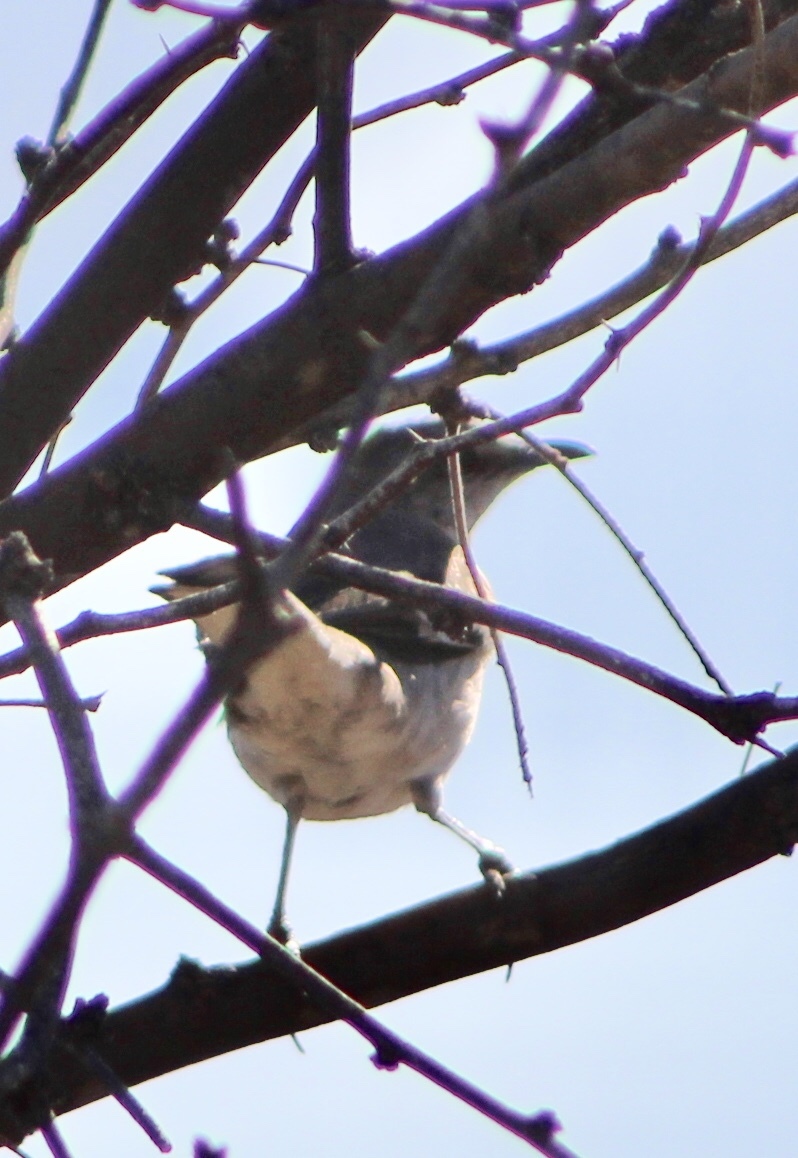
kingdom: Animalia
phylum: Chordata
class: Aves
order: Passeriformes
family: Mimidae
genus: Mimus
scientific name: Mimus polyglottos
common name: Northern mockingbird
